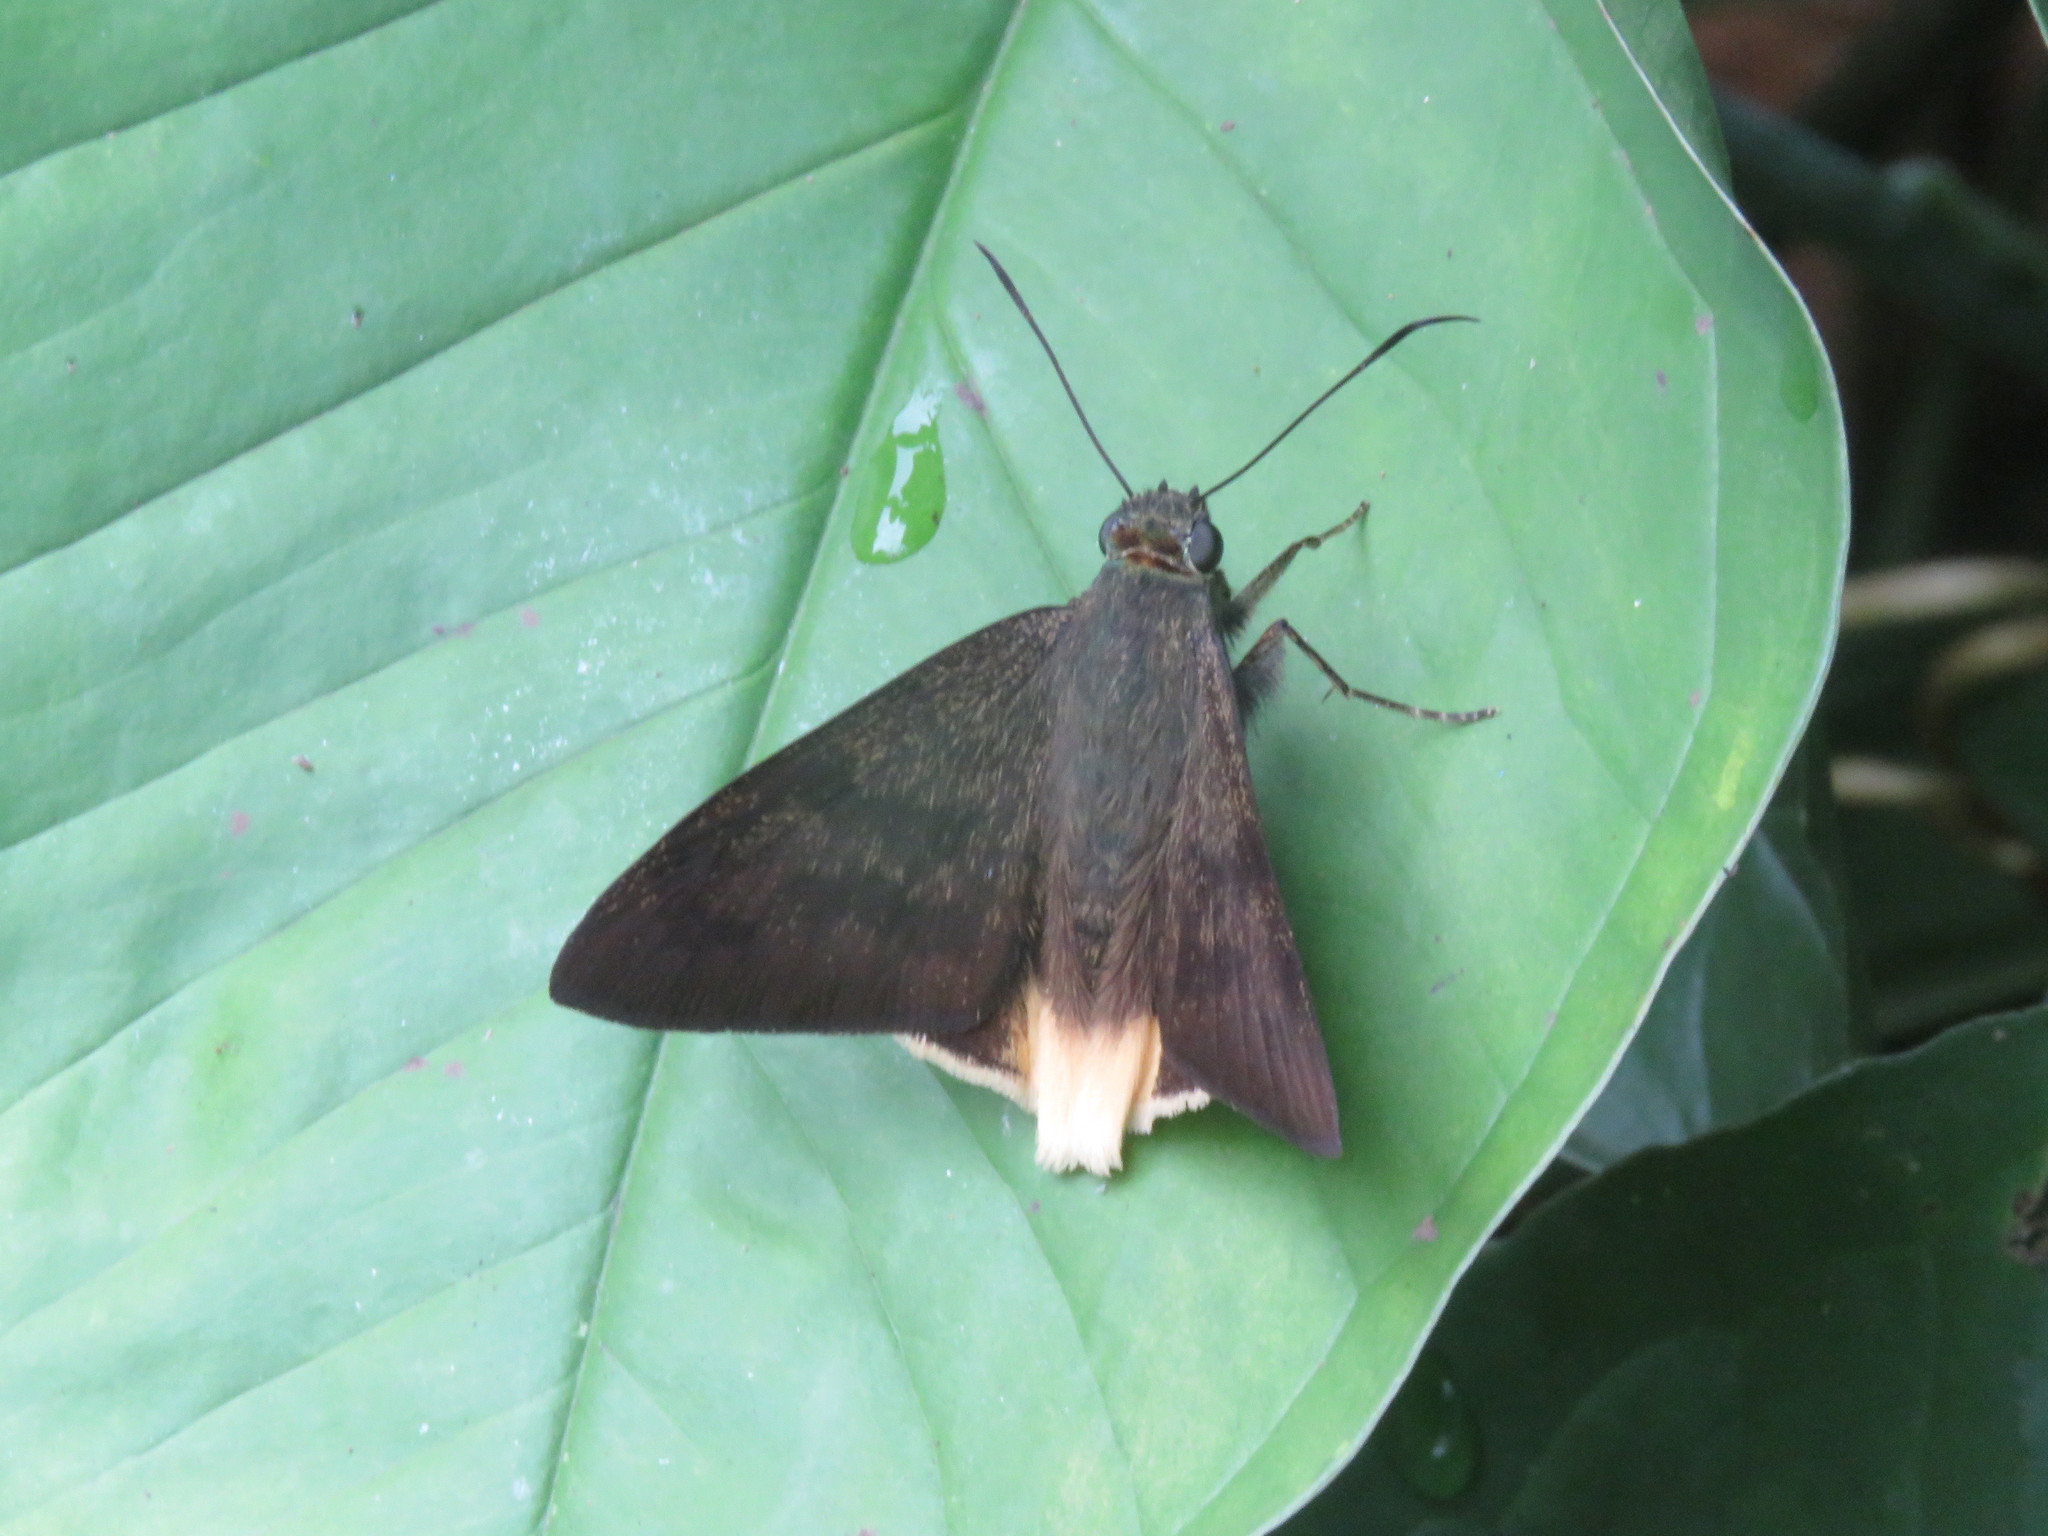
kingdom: Animalia
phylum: Arthropoda
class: Insecta
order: Lepidoptera
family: Hesperiidae
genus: Astraptes
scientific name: Astraptes anaphus
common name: Yellow-tipped flasher
